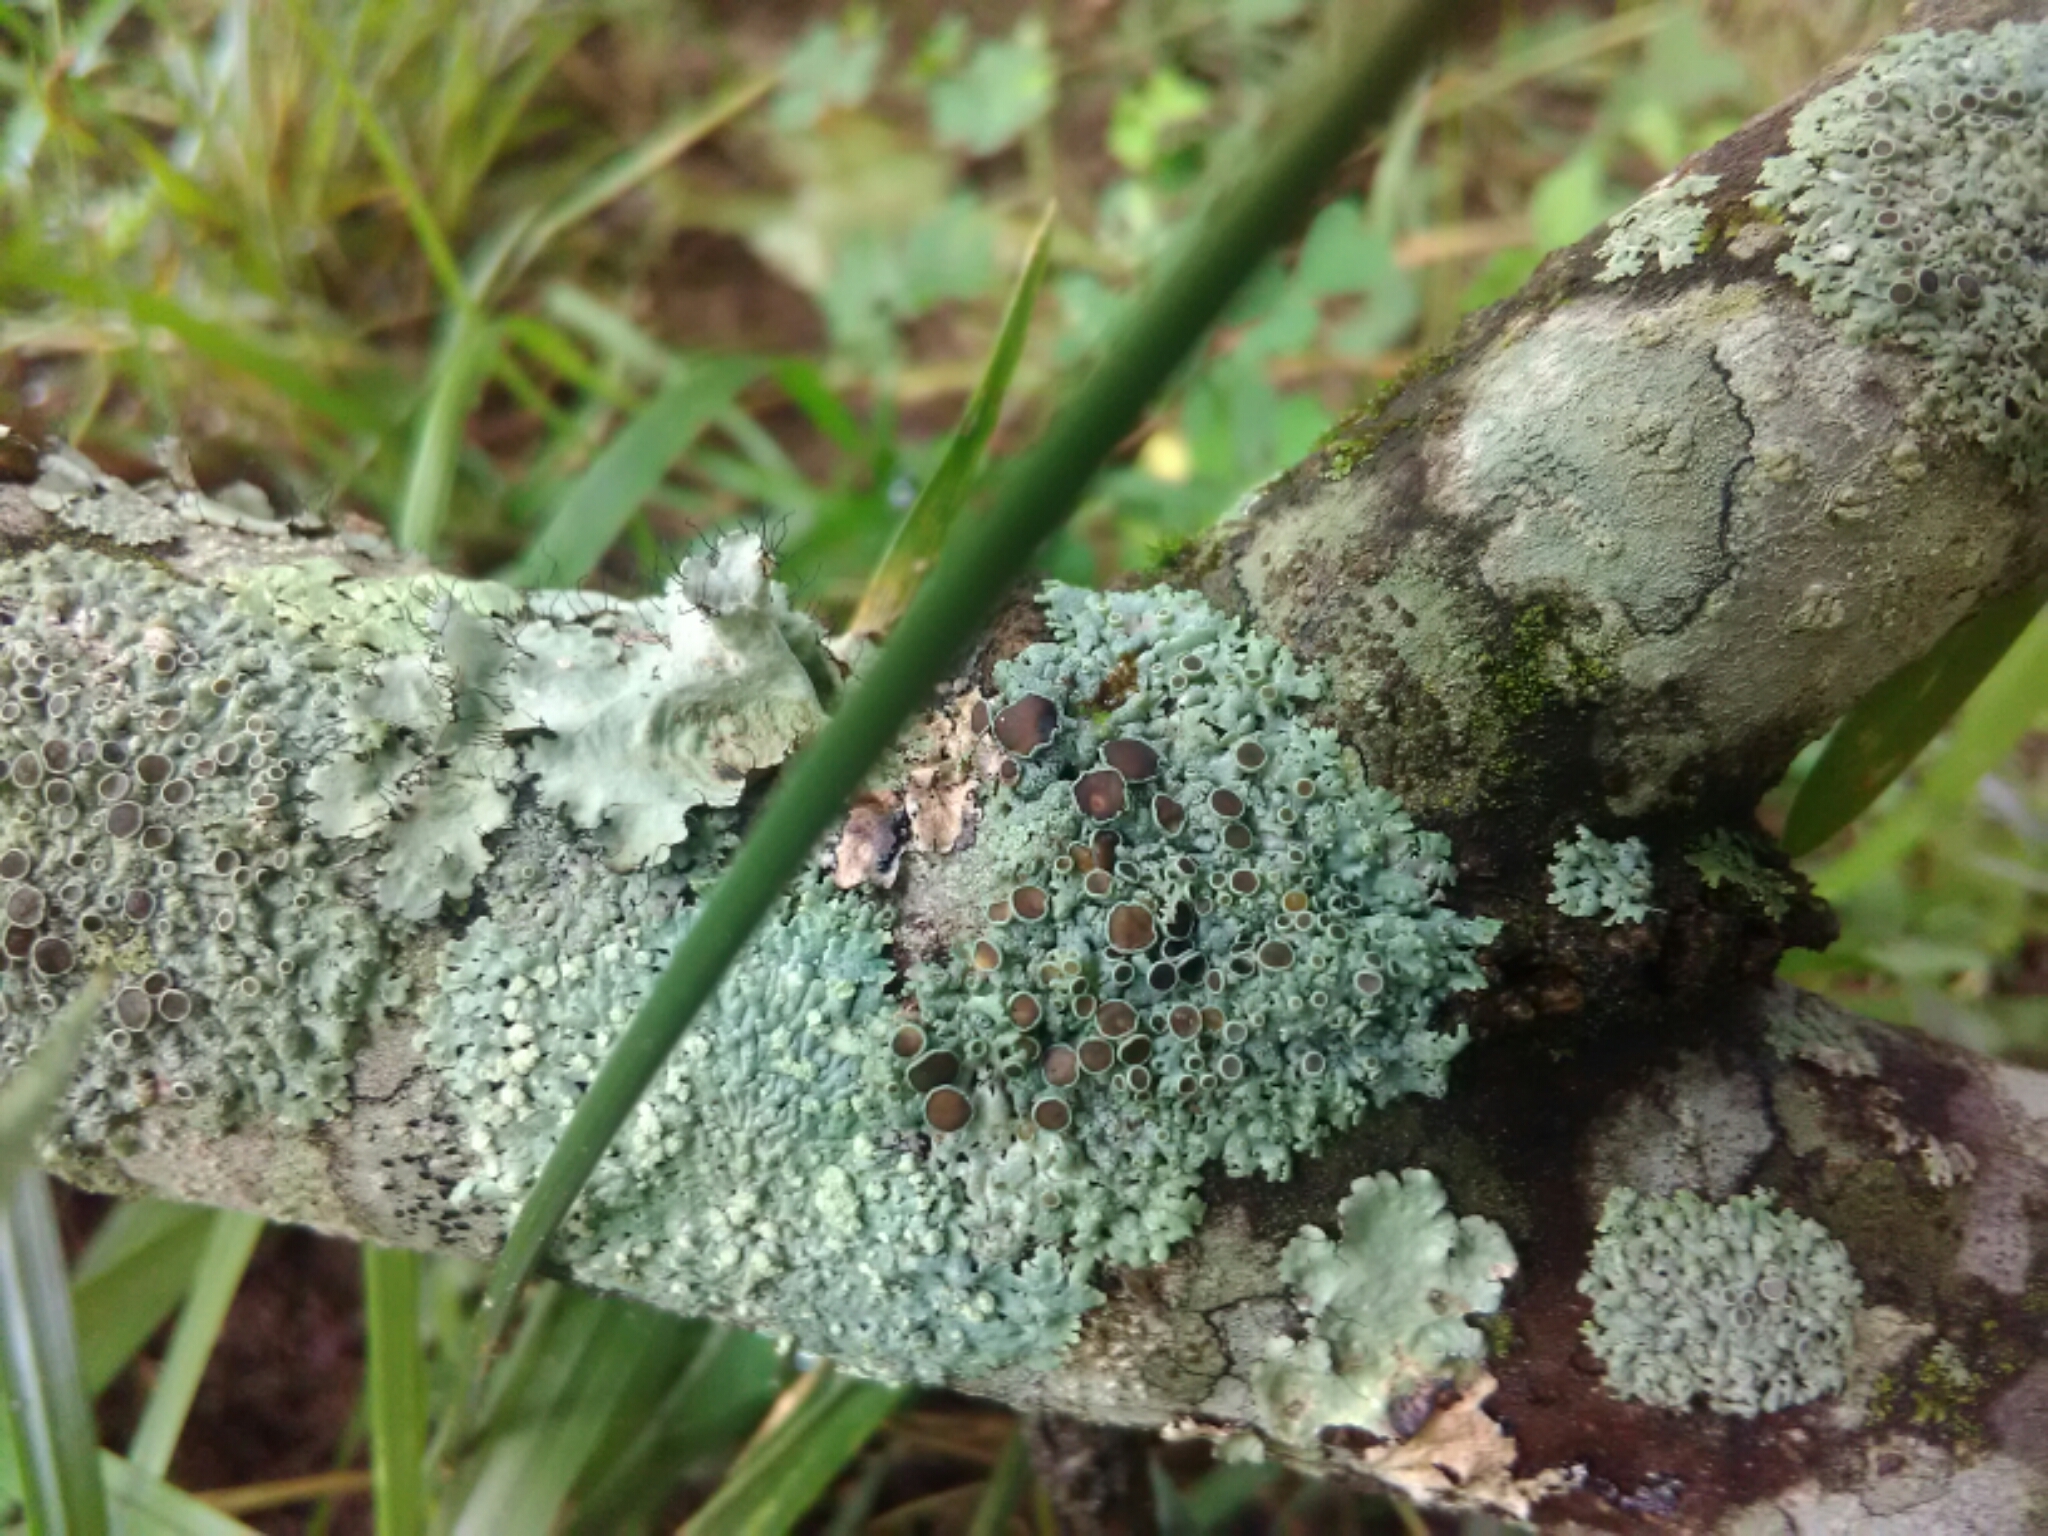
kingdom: Fungi
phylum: Ascomycota
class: Lecanoromycetes
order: Caliciales
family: Physciaceae
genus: Physcia
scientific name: Physcia stellaris
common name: Star rosette lichen
